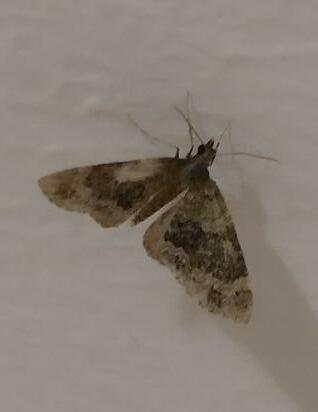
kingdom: Animalia
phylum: Arthropoda
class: Insecta
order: Lepidoptera
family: Geometridae
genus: Acasis
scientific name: Acasis viretata
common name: Yellow-barred brindle
